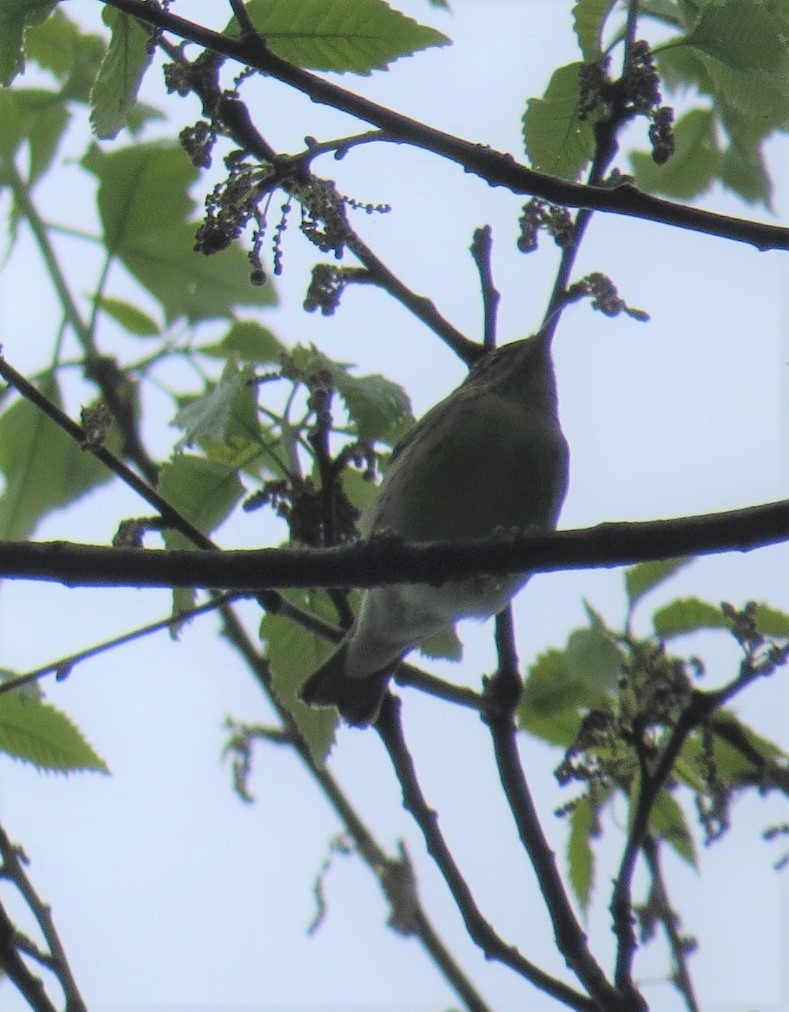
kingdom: Animalia
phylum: Chordata
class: Aves
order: Passeriformes
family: Parulidae
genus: Setophaga
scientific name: Setophaga striata
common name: Blackpoll warbler
